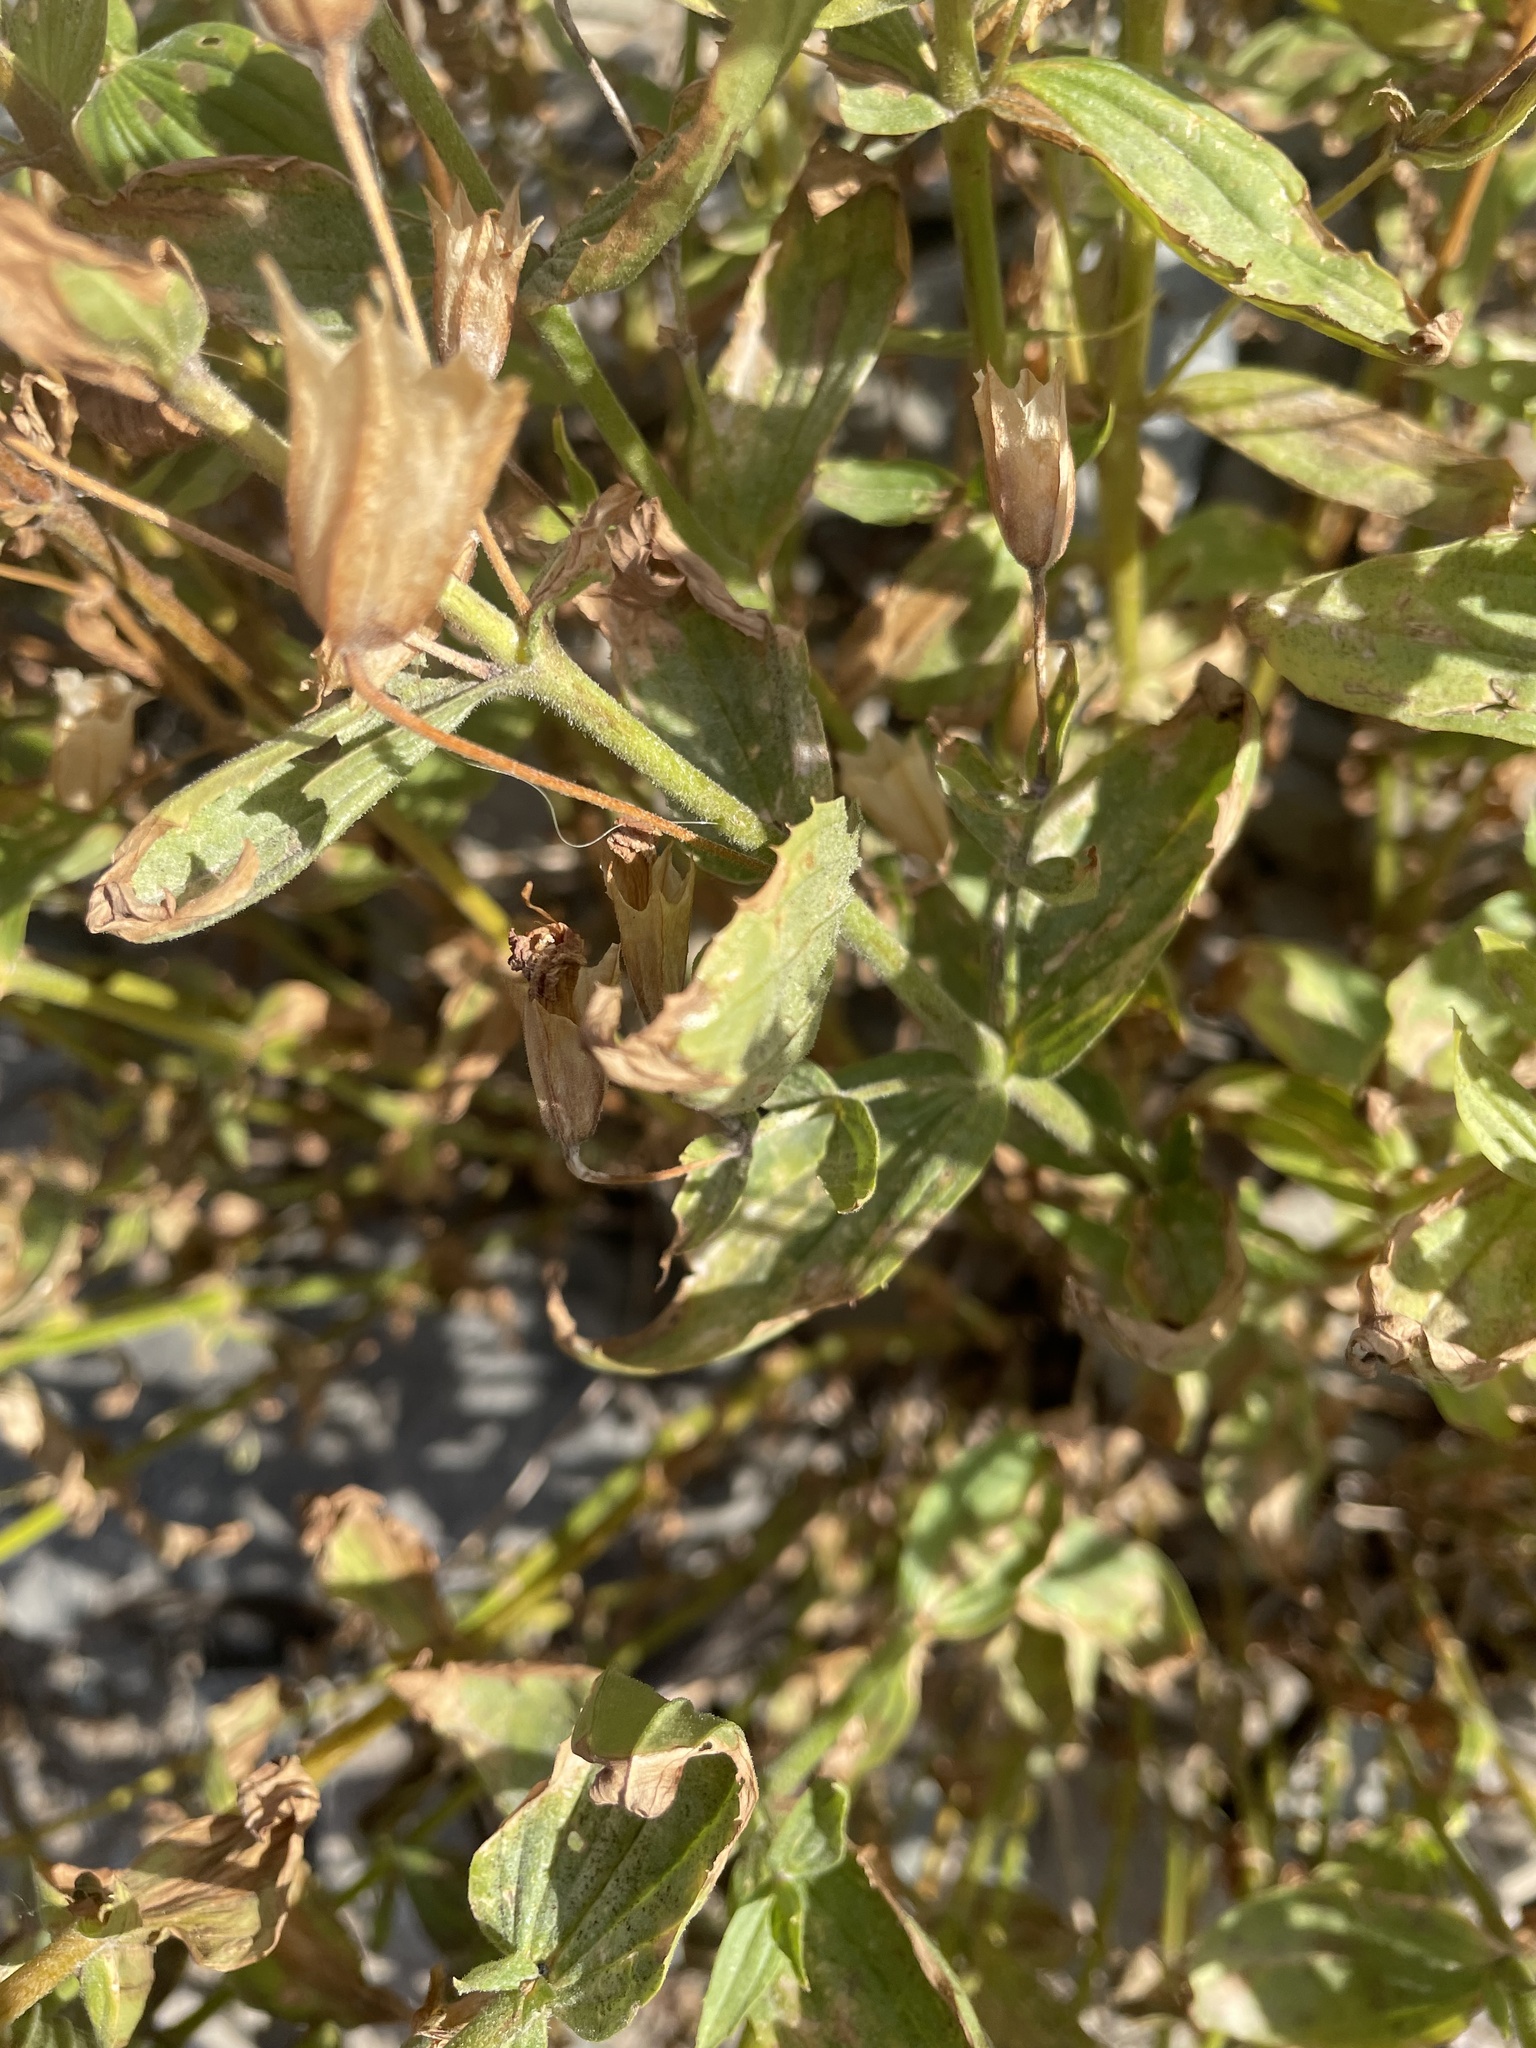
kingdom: Plantae
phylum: Tracheophyta
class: Magnoliopsida
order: Lamiales
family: Phrymaceae
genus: Erythranthe
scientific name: Erythranthe lewisii
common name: Lewis's monkey-flower
